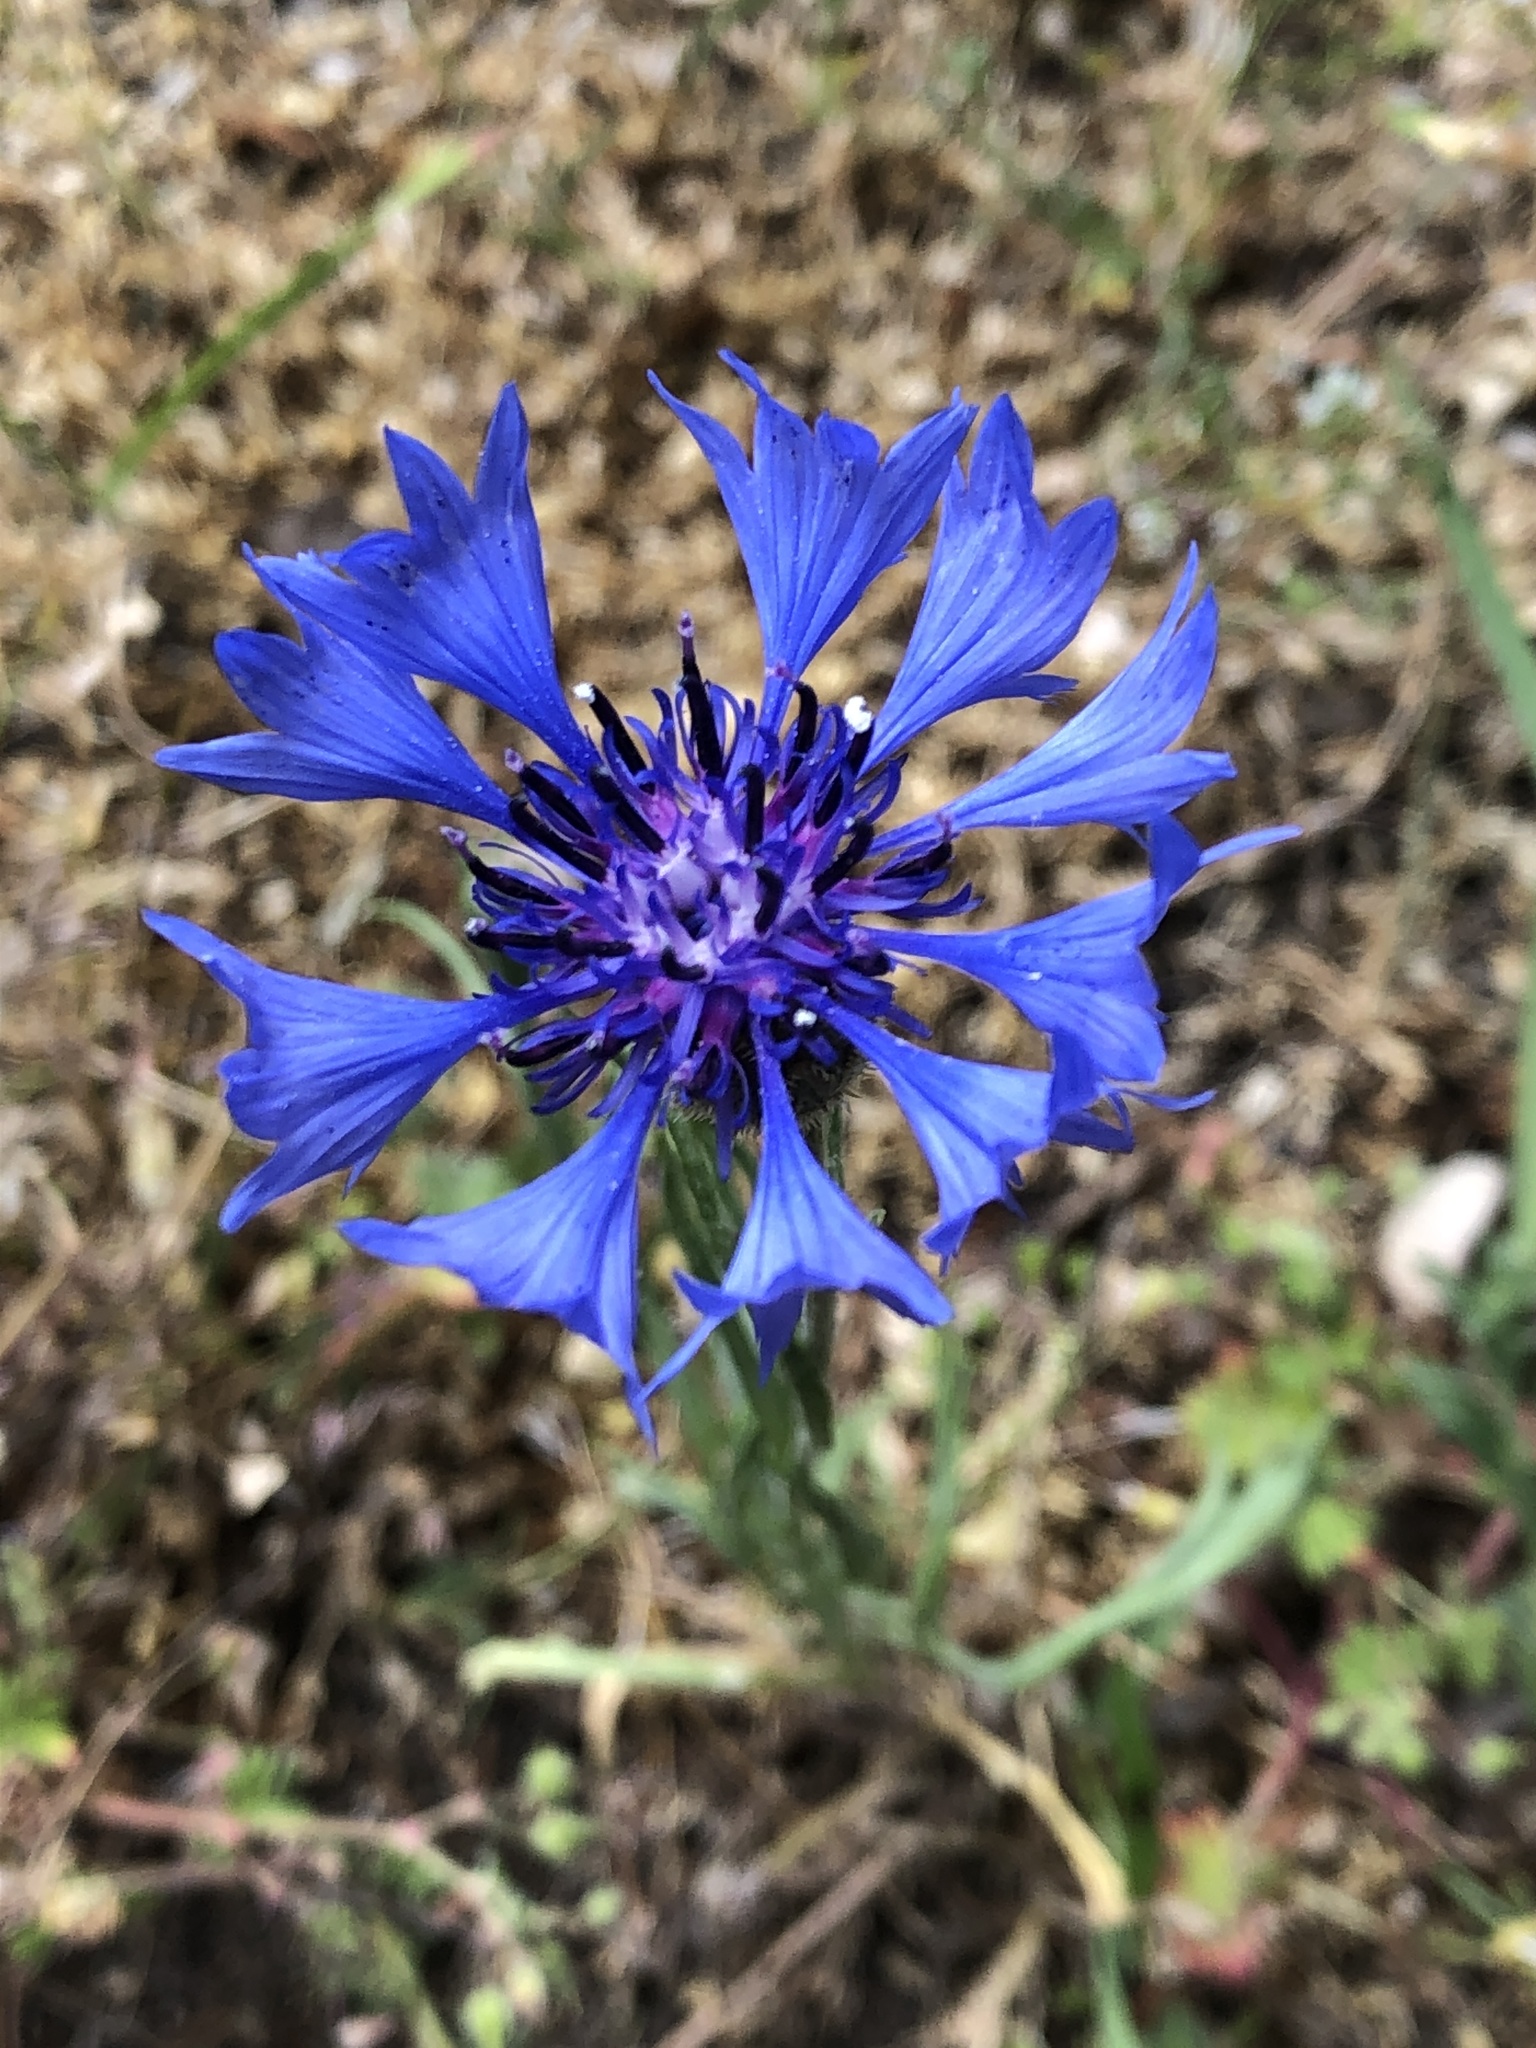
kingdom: Plantae
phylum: Tracheophyta
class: Magnoliopsida
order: Asterales
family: Asteraceae
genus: Centaurea
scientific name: Centaurea cyanus
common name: Cornflower
